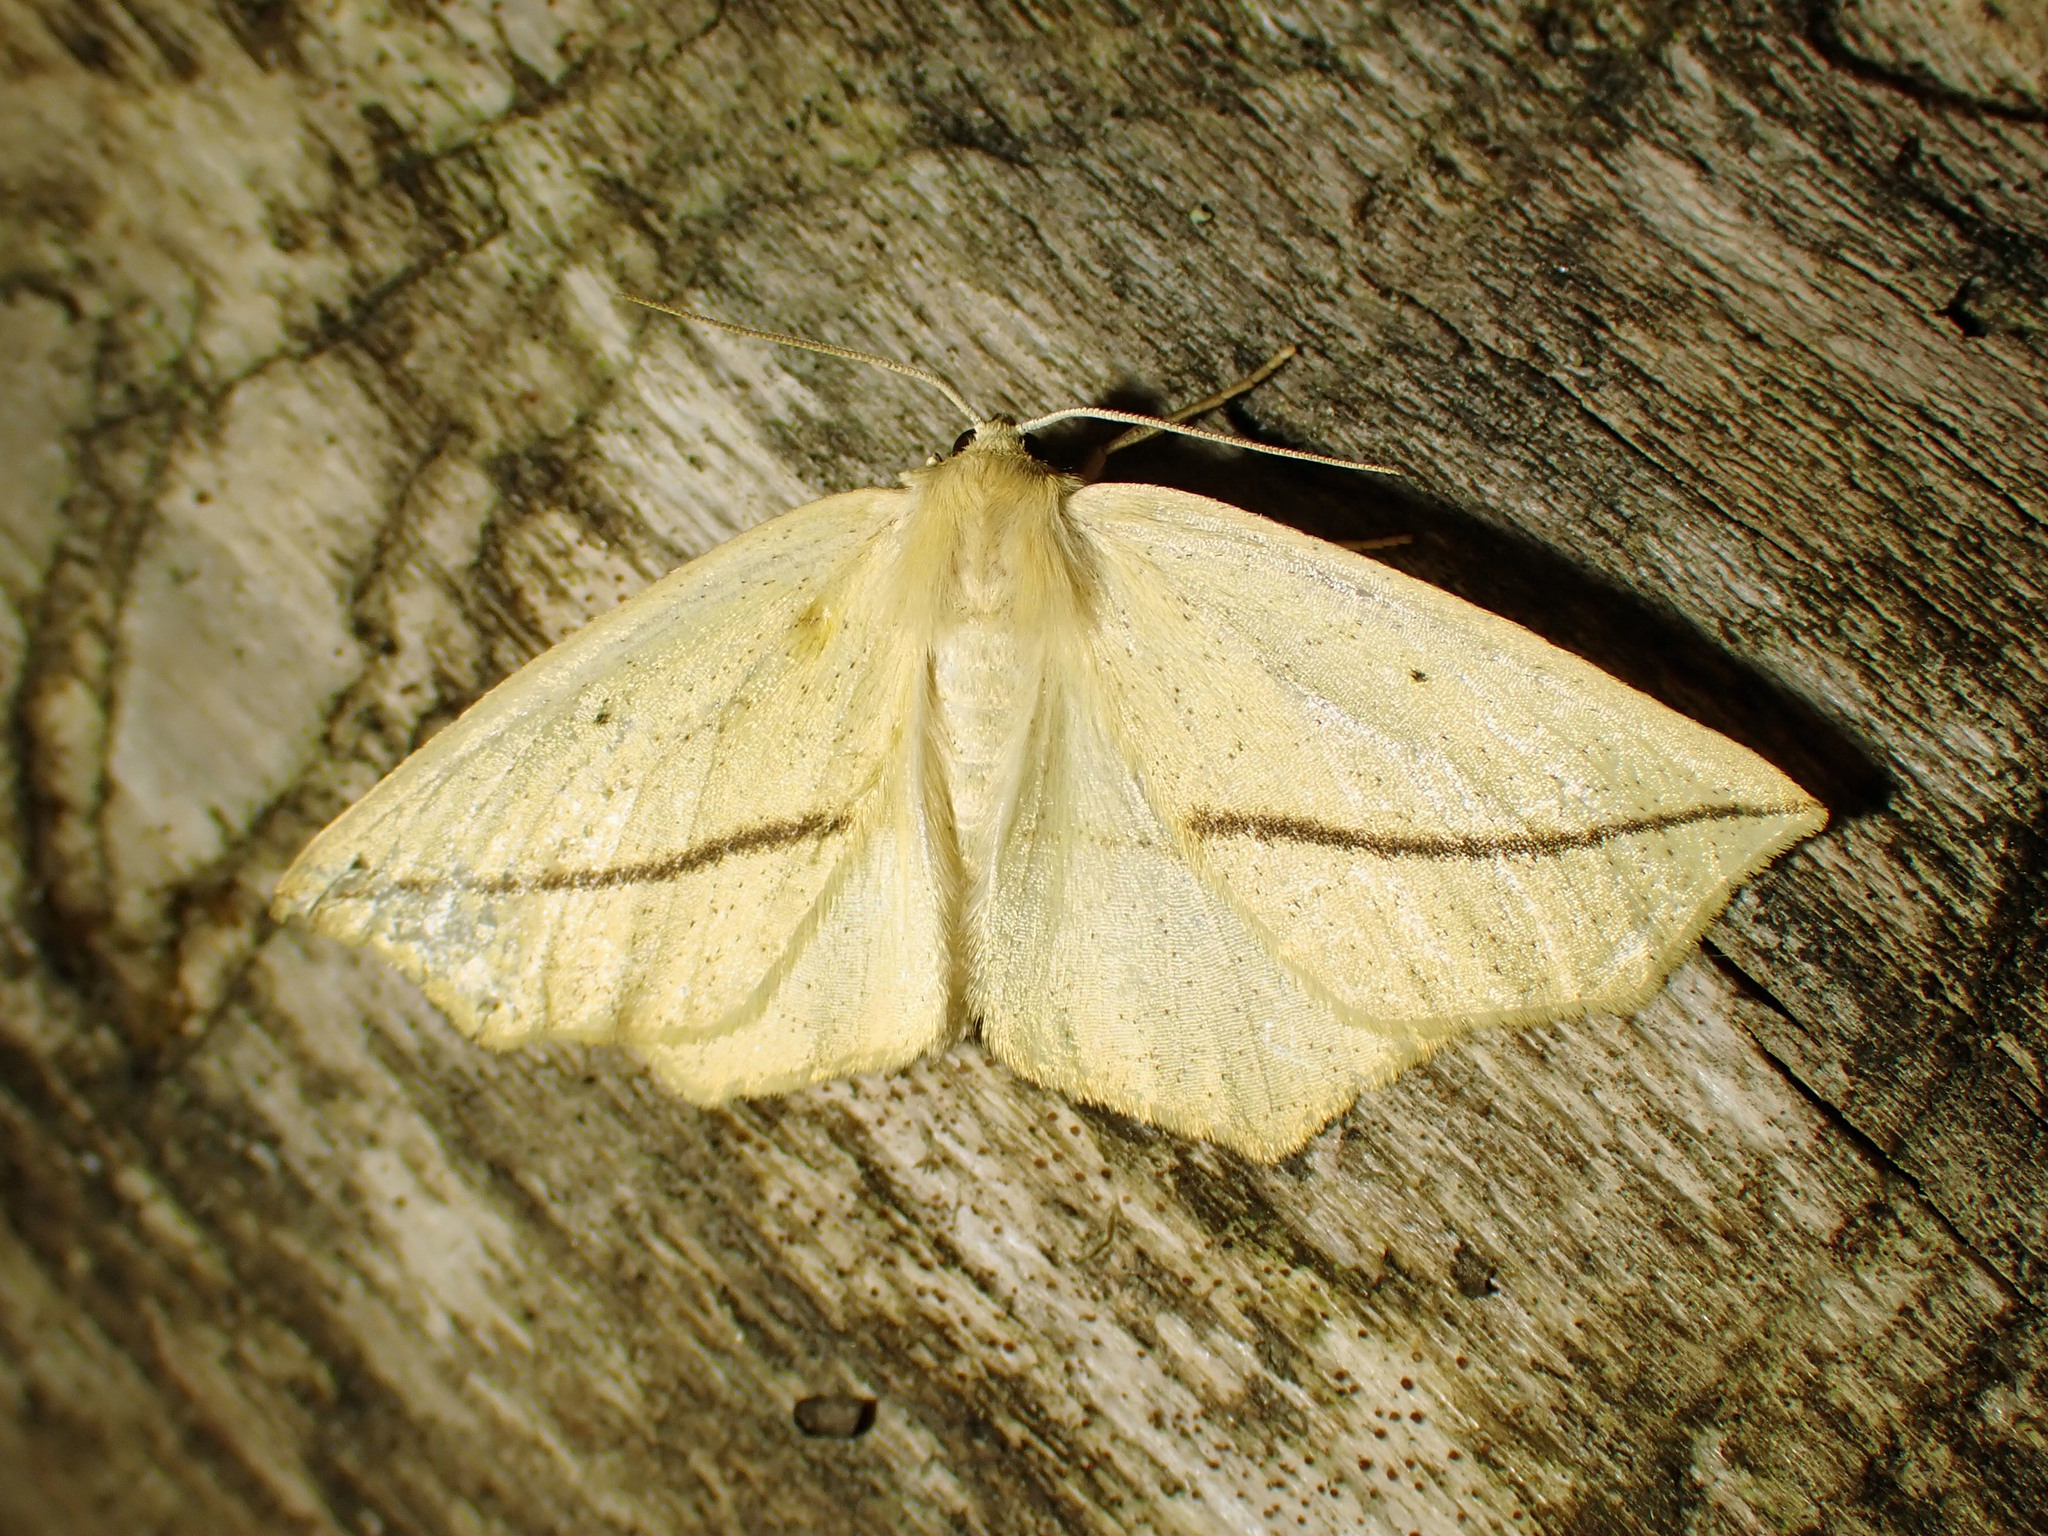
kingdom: Animalia
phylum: Arthropoda
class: Insecta
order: Lepidoptera
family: Geometridae
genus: Tetracis
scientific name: Tetracis crocallata
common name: Yellow slant-line
